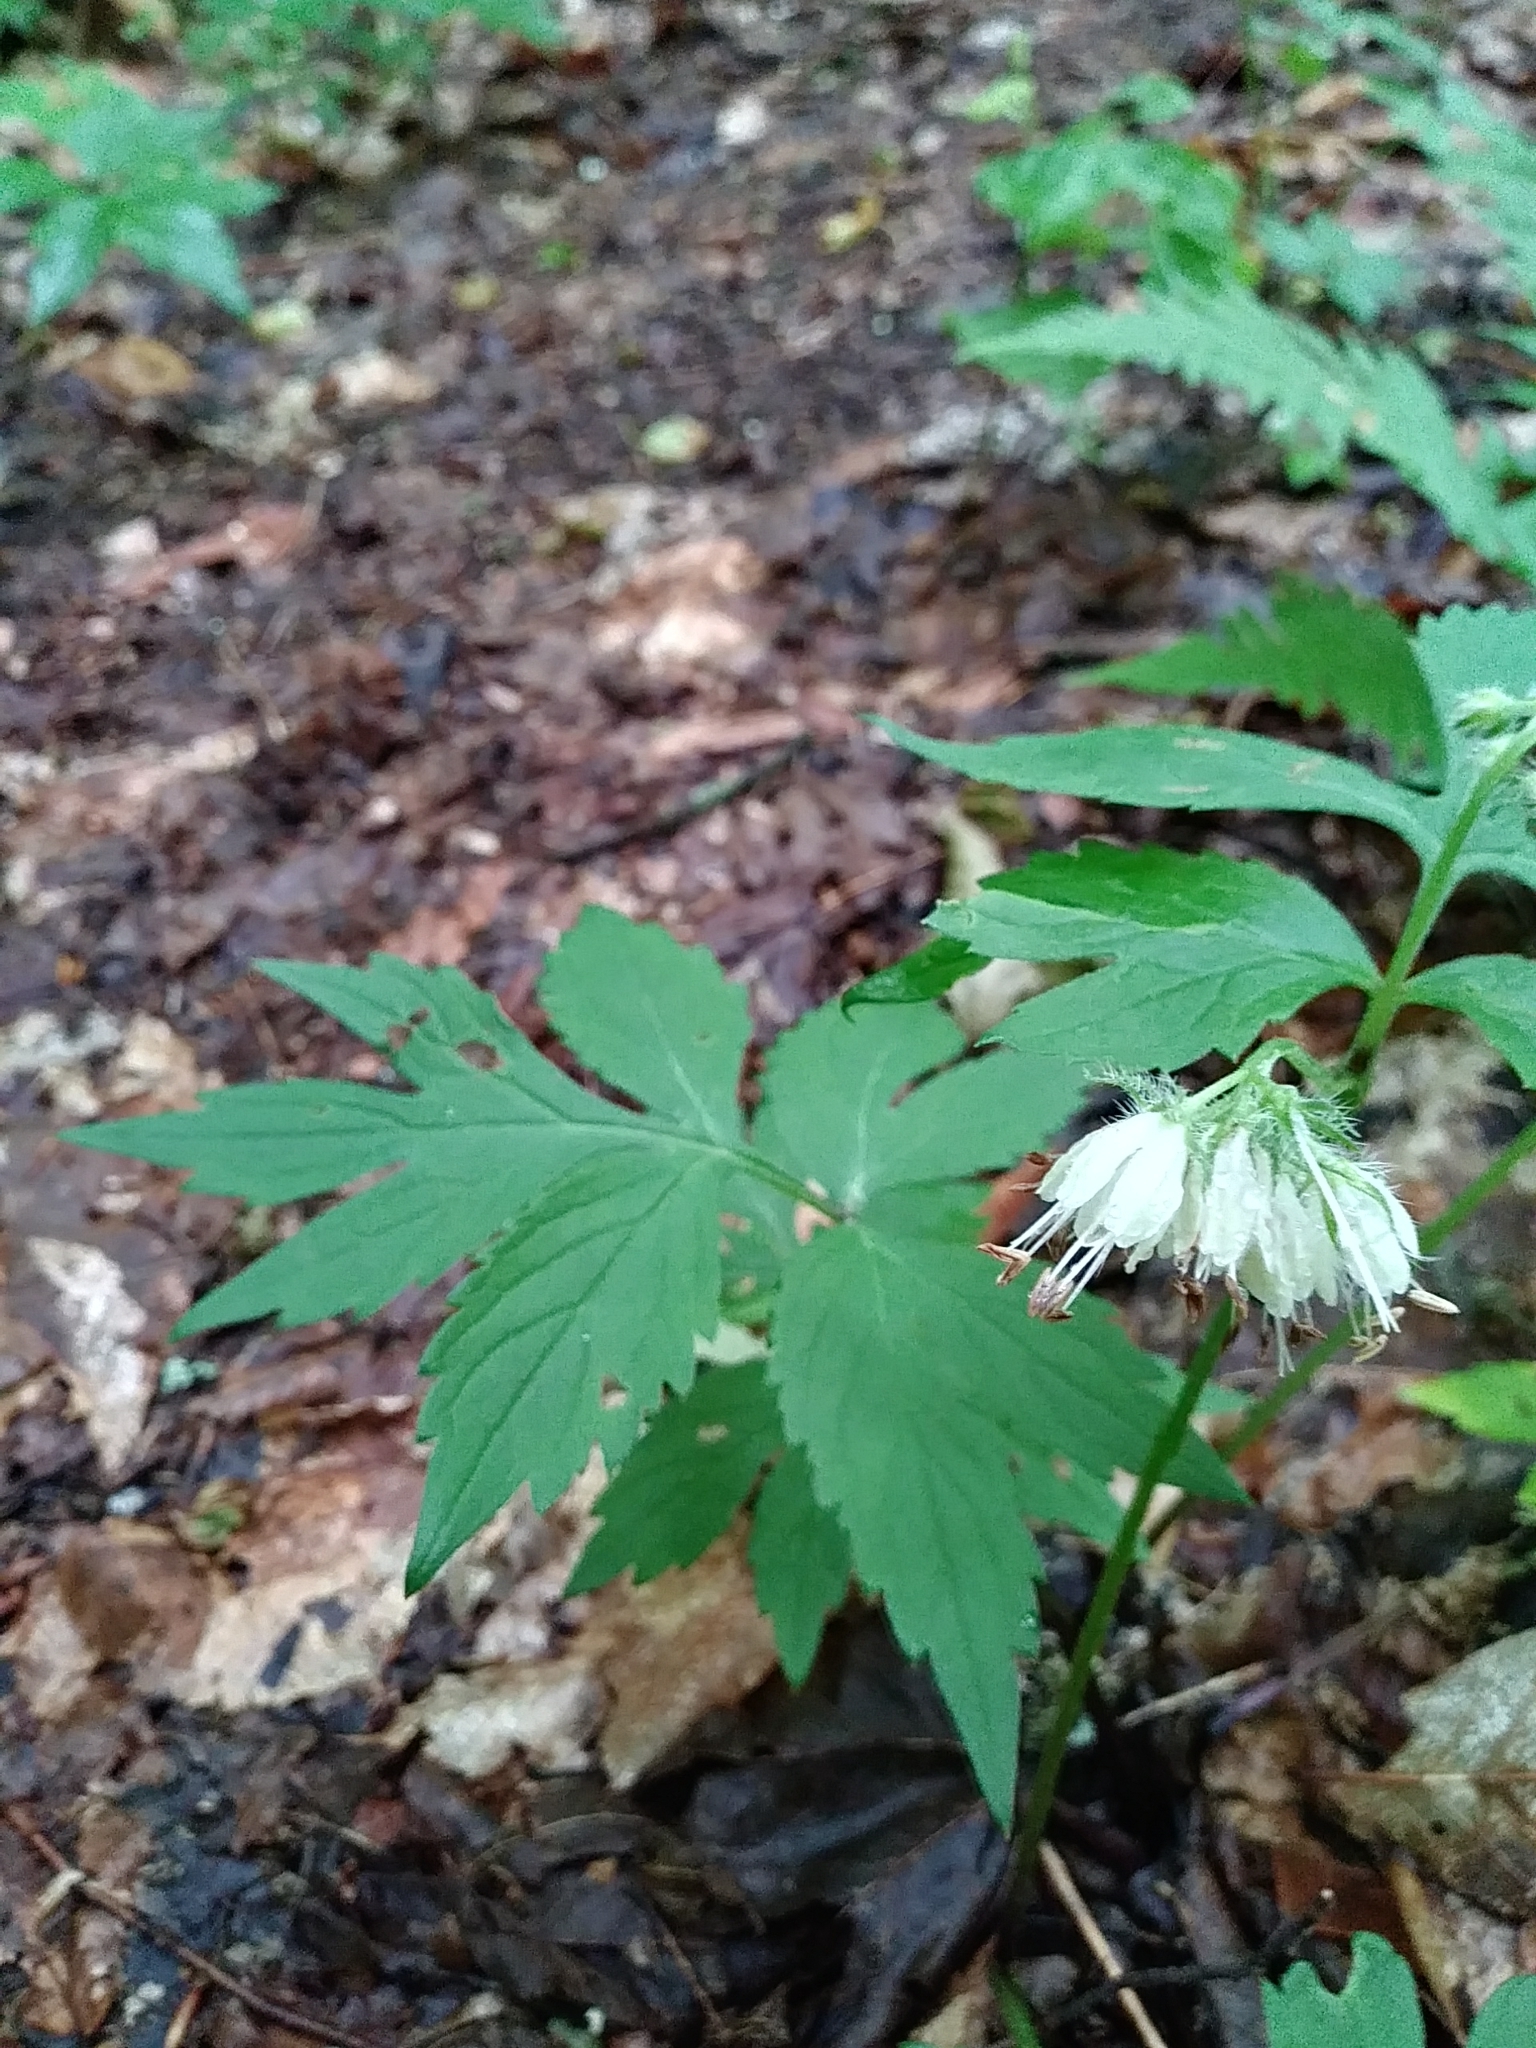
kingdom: Plantae
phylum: Tracheophyta
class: Magnoliopsida
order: Boraginales
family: Hydrophyllaceae
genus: Hydrophyllum
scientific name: Hydrophyllum virginianum
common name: Virginia waterleaf
